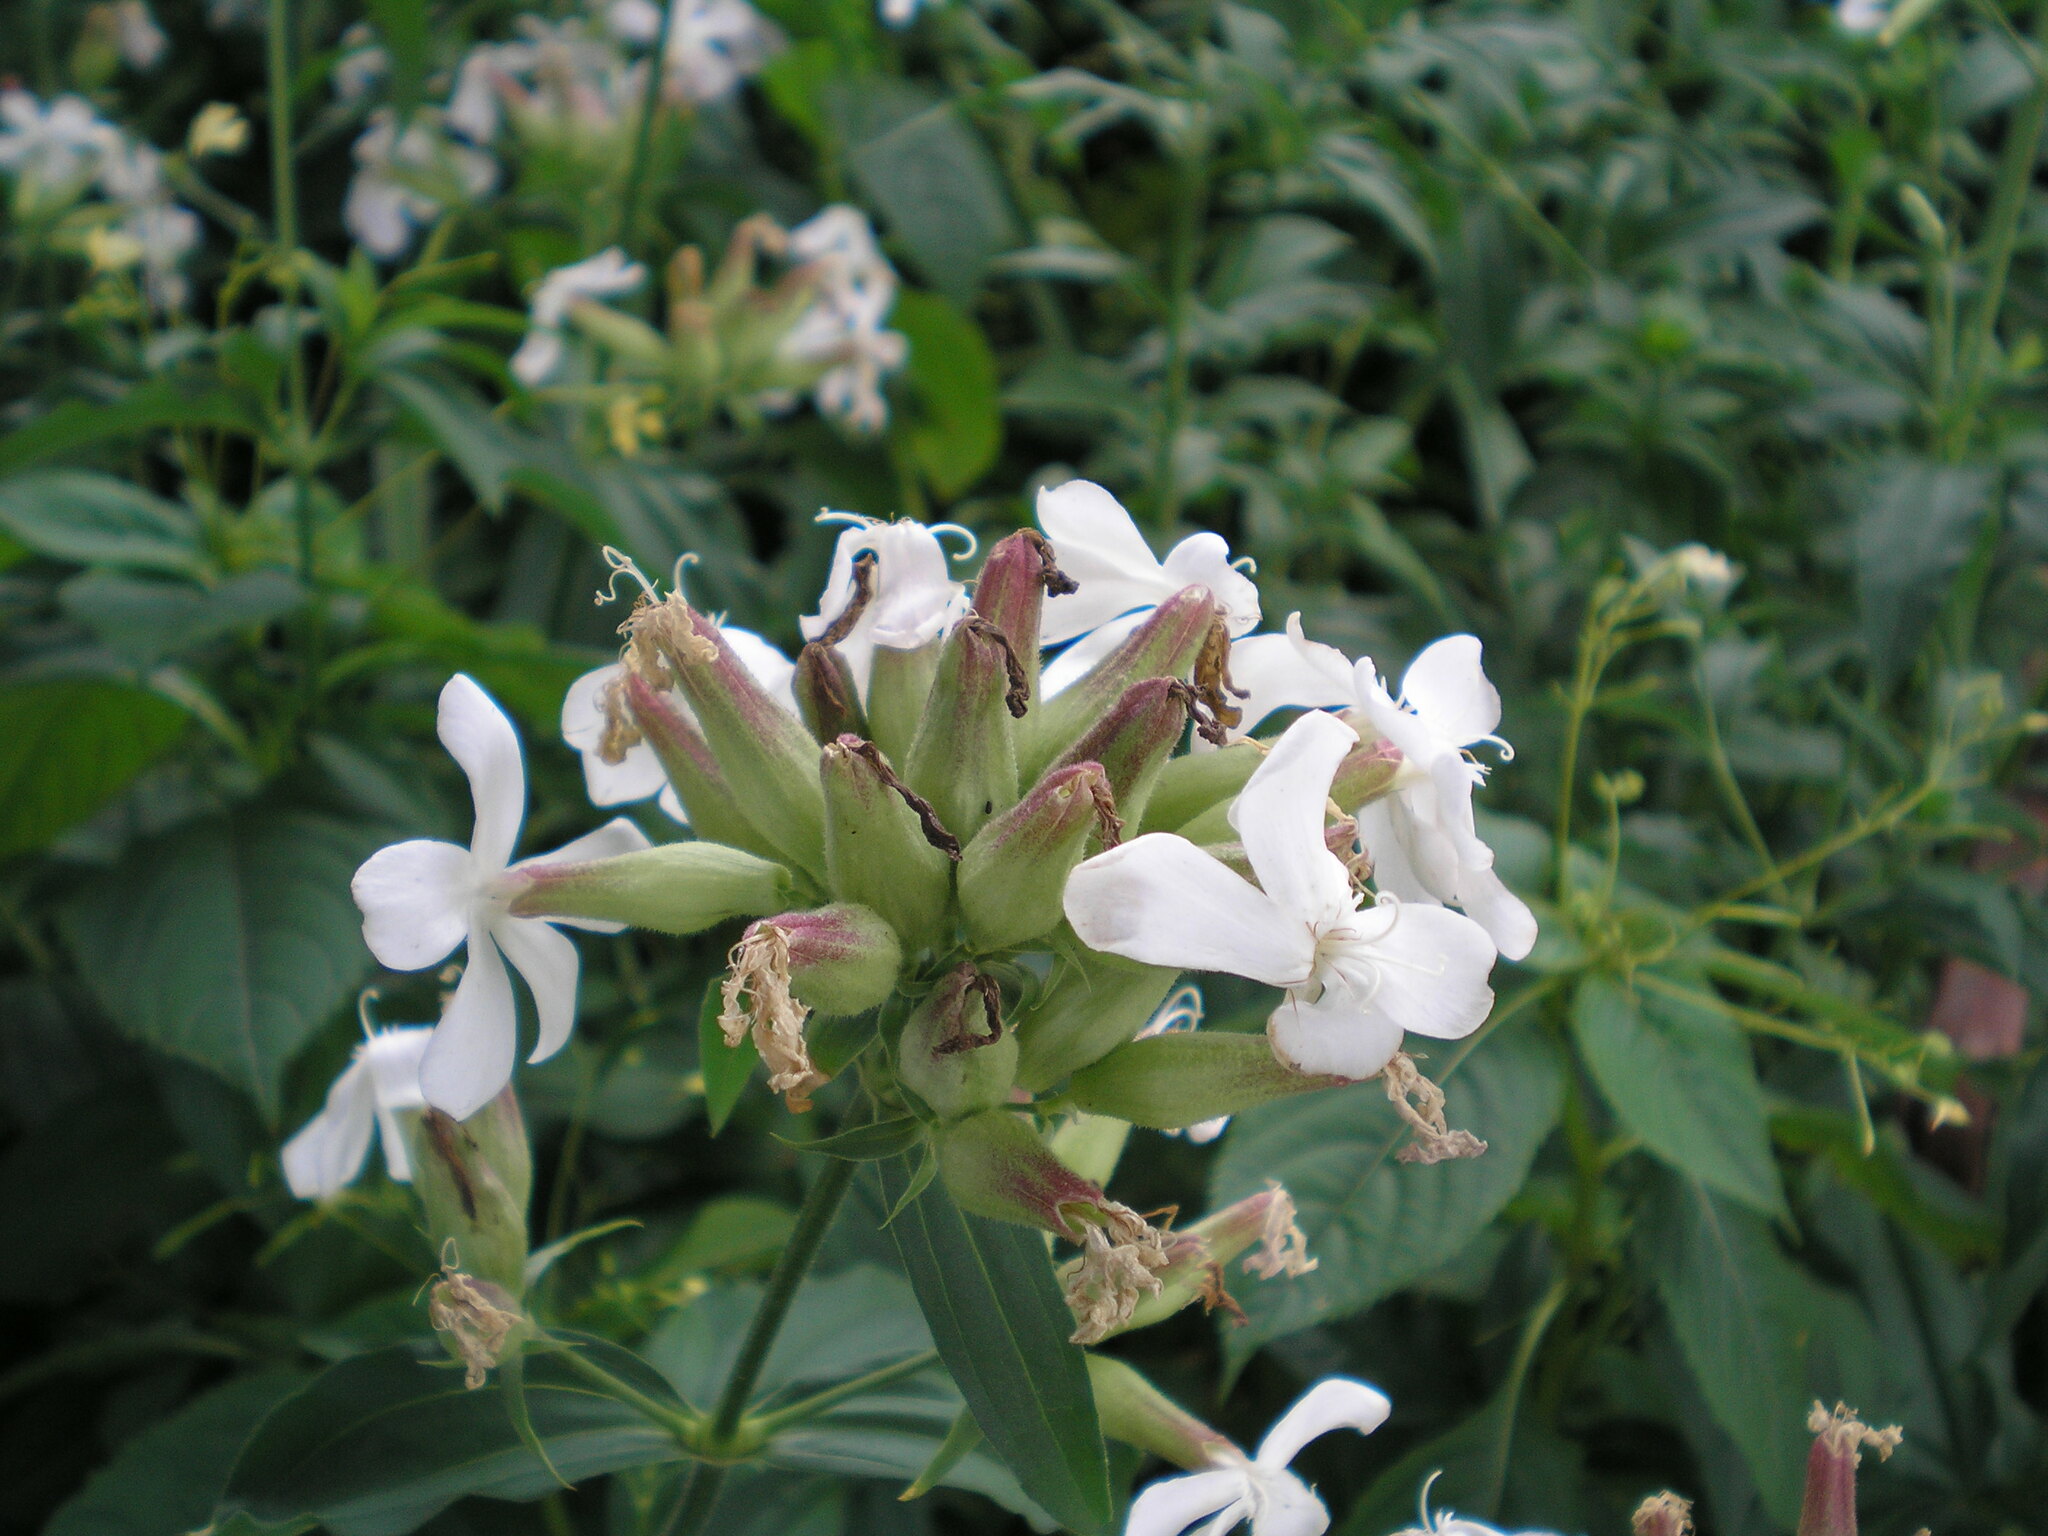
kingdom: Plantae
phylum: Tracheophyta
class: Magnoliopsida
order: Caryophyllales
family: Caryophyllaceae
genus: Saponaria
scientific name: Saponaria officinalis
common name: Soapwort
